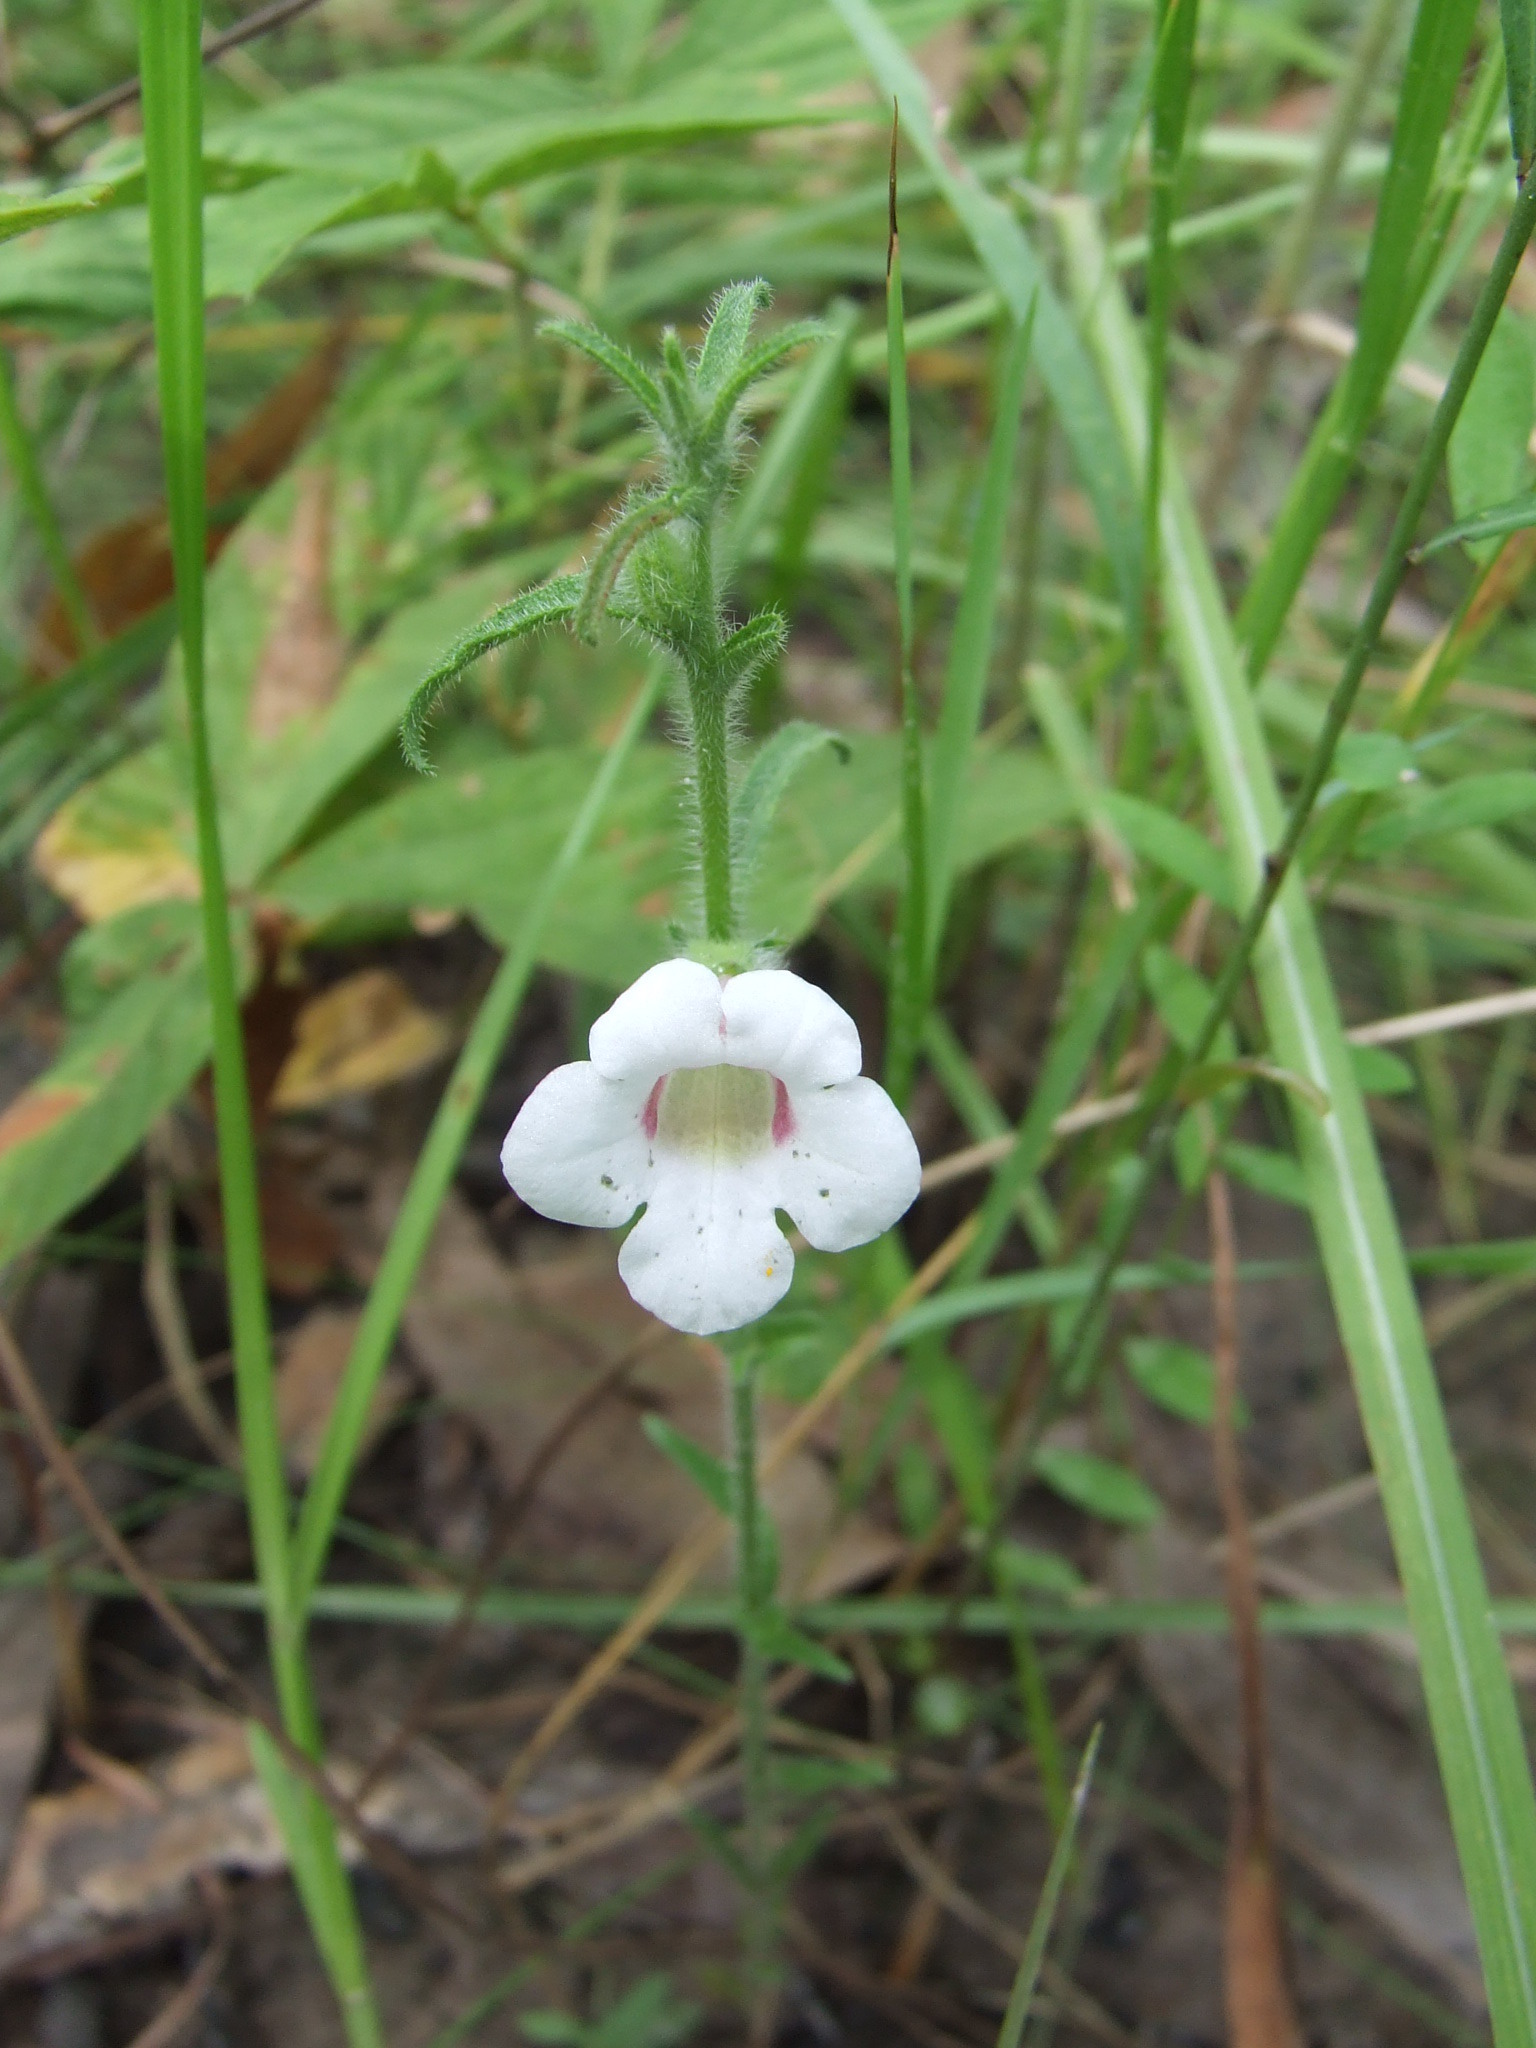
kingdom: Plantae
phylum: Tracheophyta
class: Magnoliopsida
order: Lamiales
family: Orobanchaceae
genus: Centranthera
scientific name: Centranthera cochinchinensis
